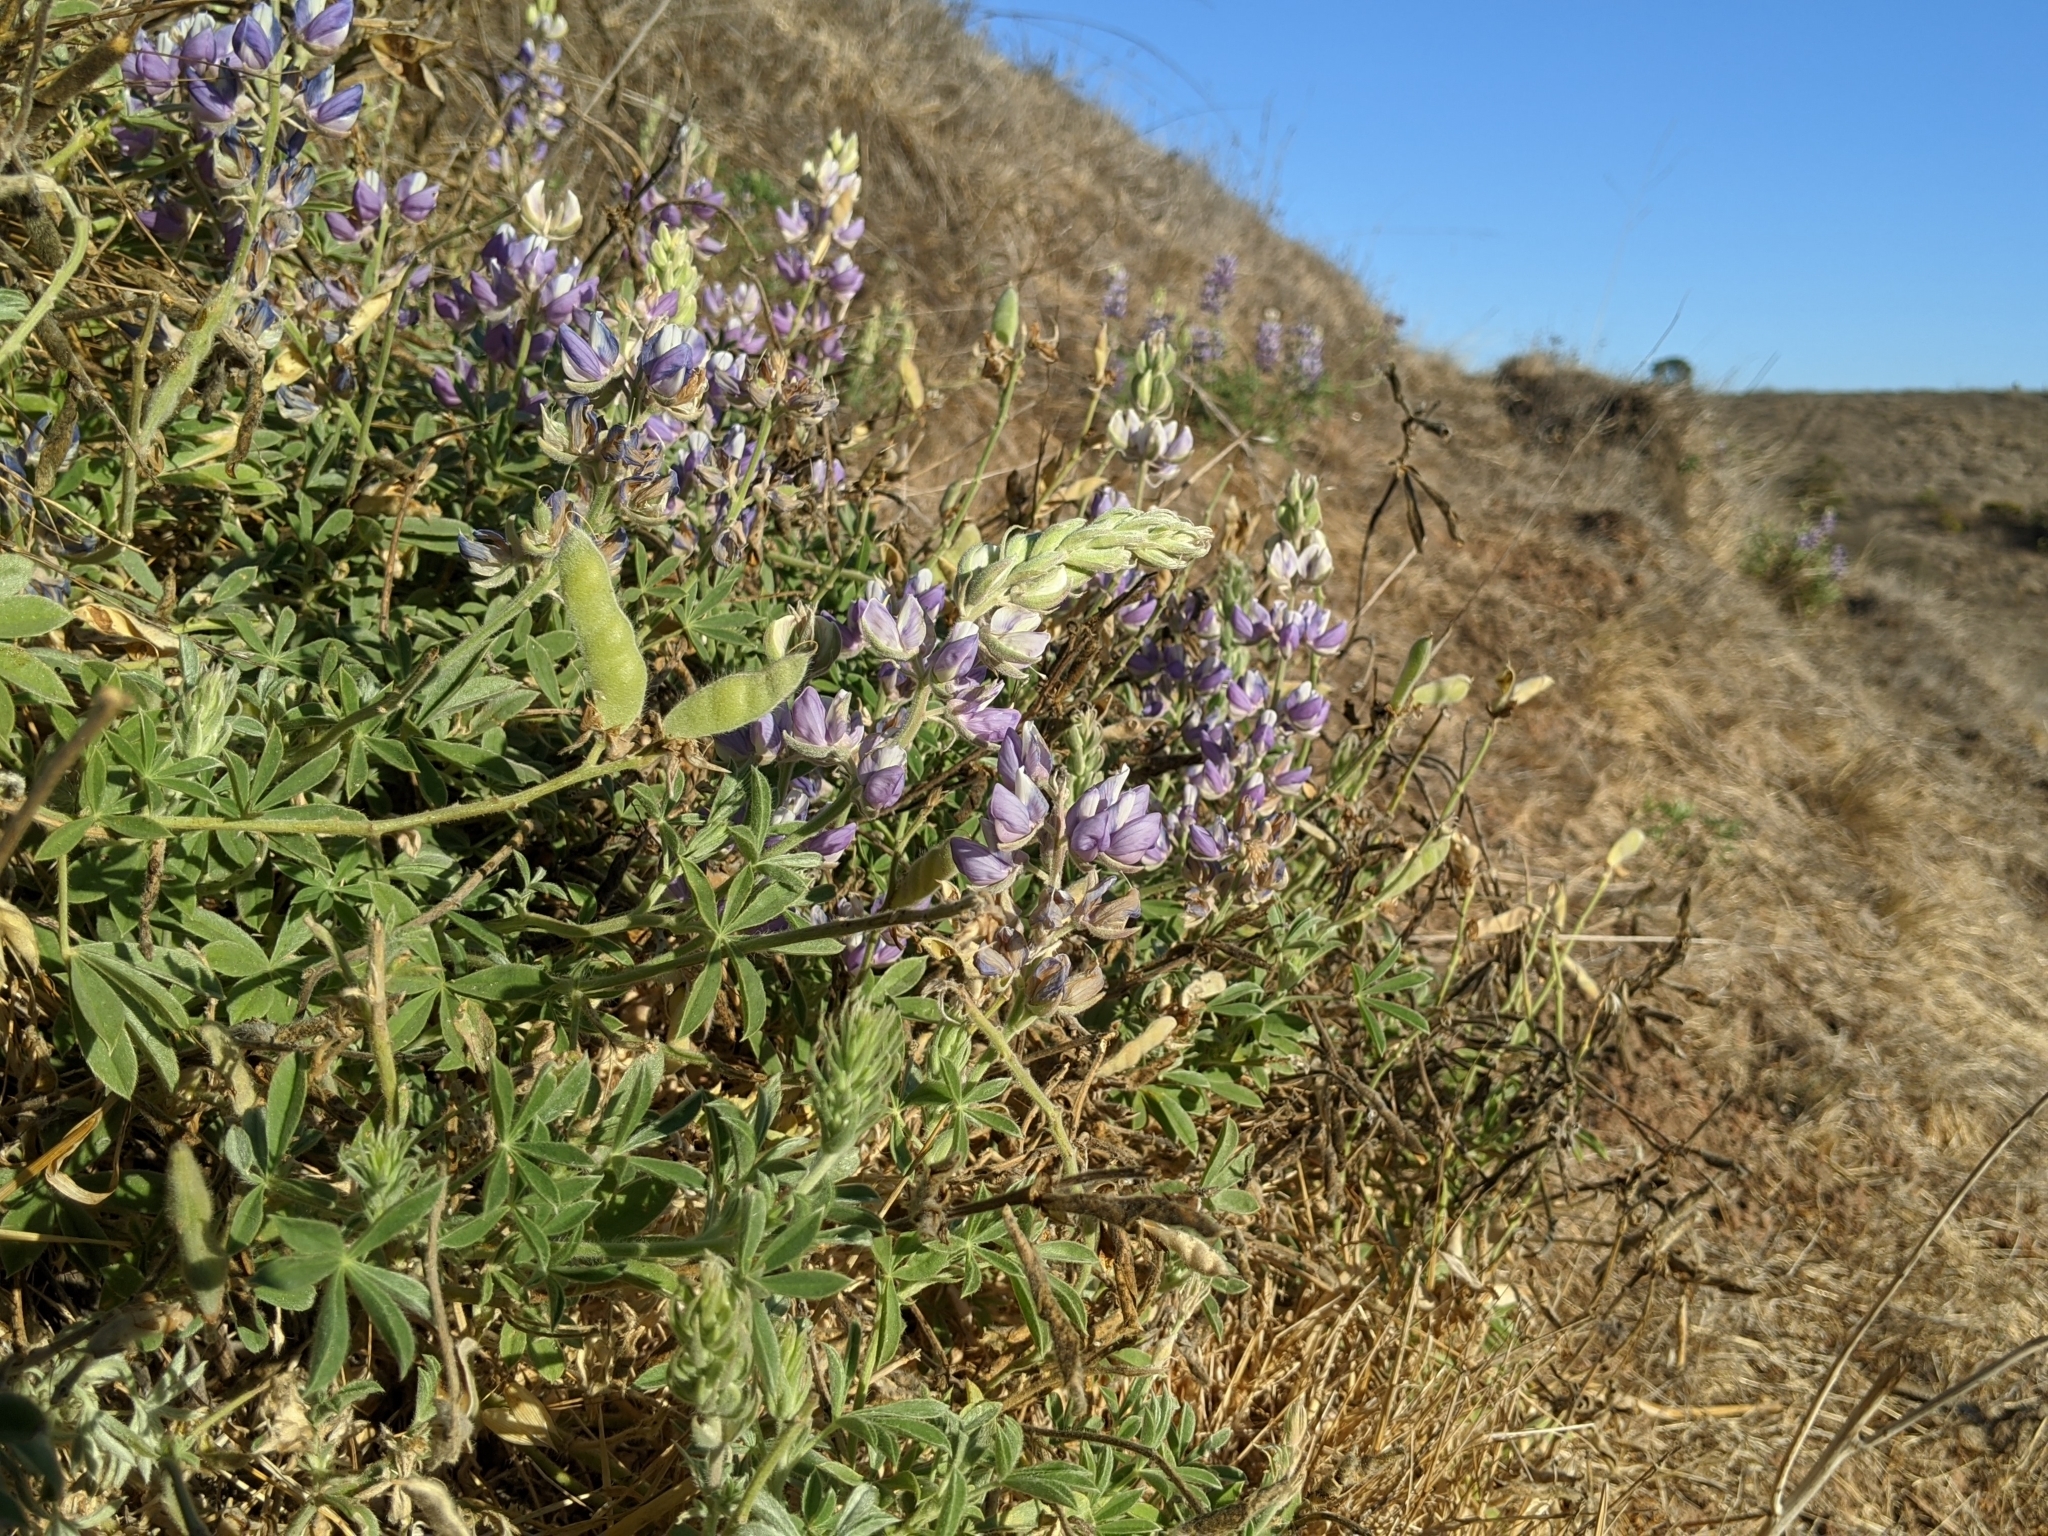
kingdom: Plantae
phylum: Tracheophyta
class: Magnoliopsida
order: Fabales
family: Fabaceae
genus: Lupinus
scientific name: Lupinus formosus
